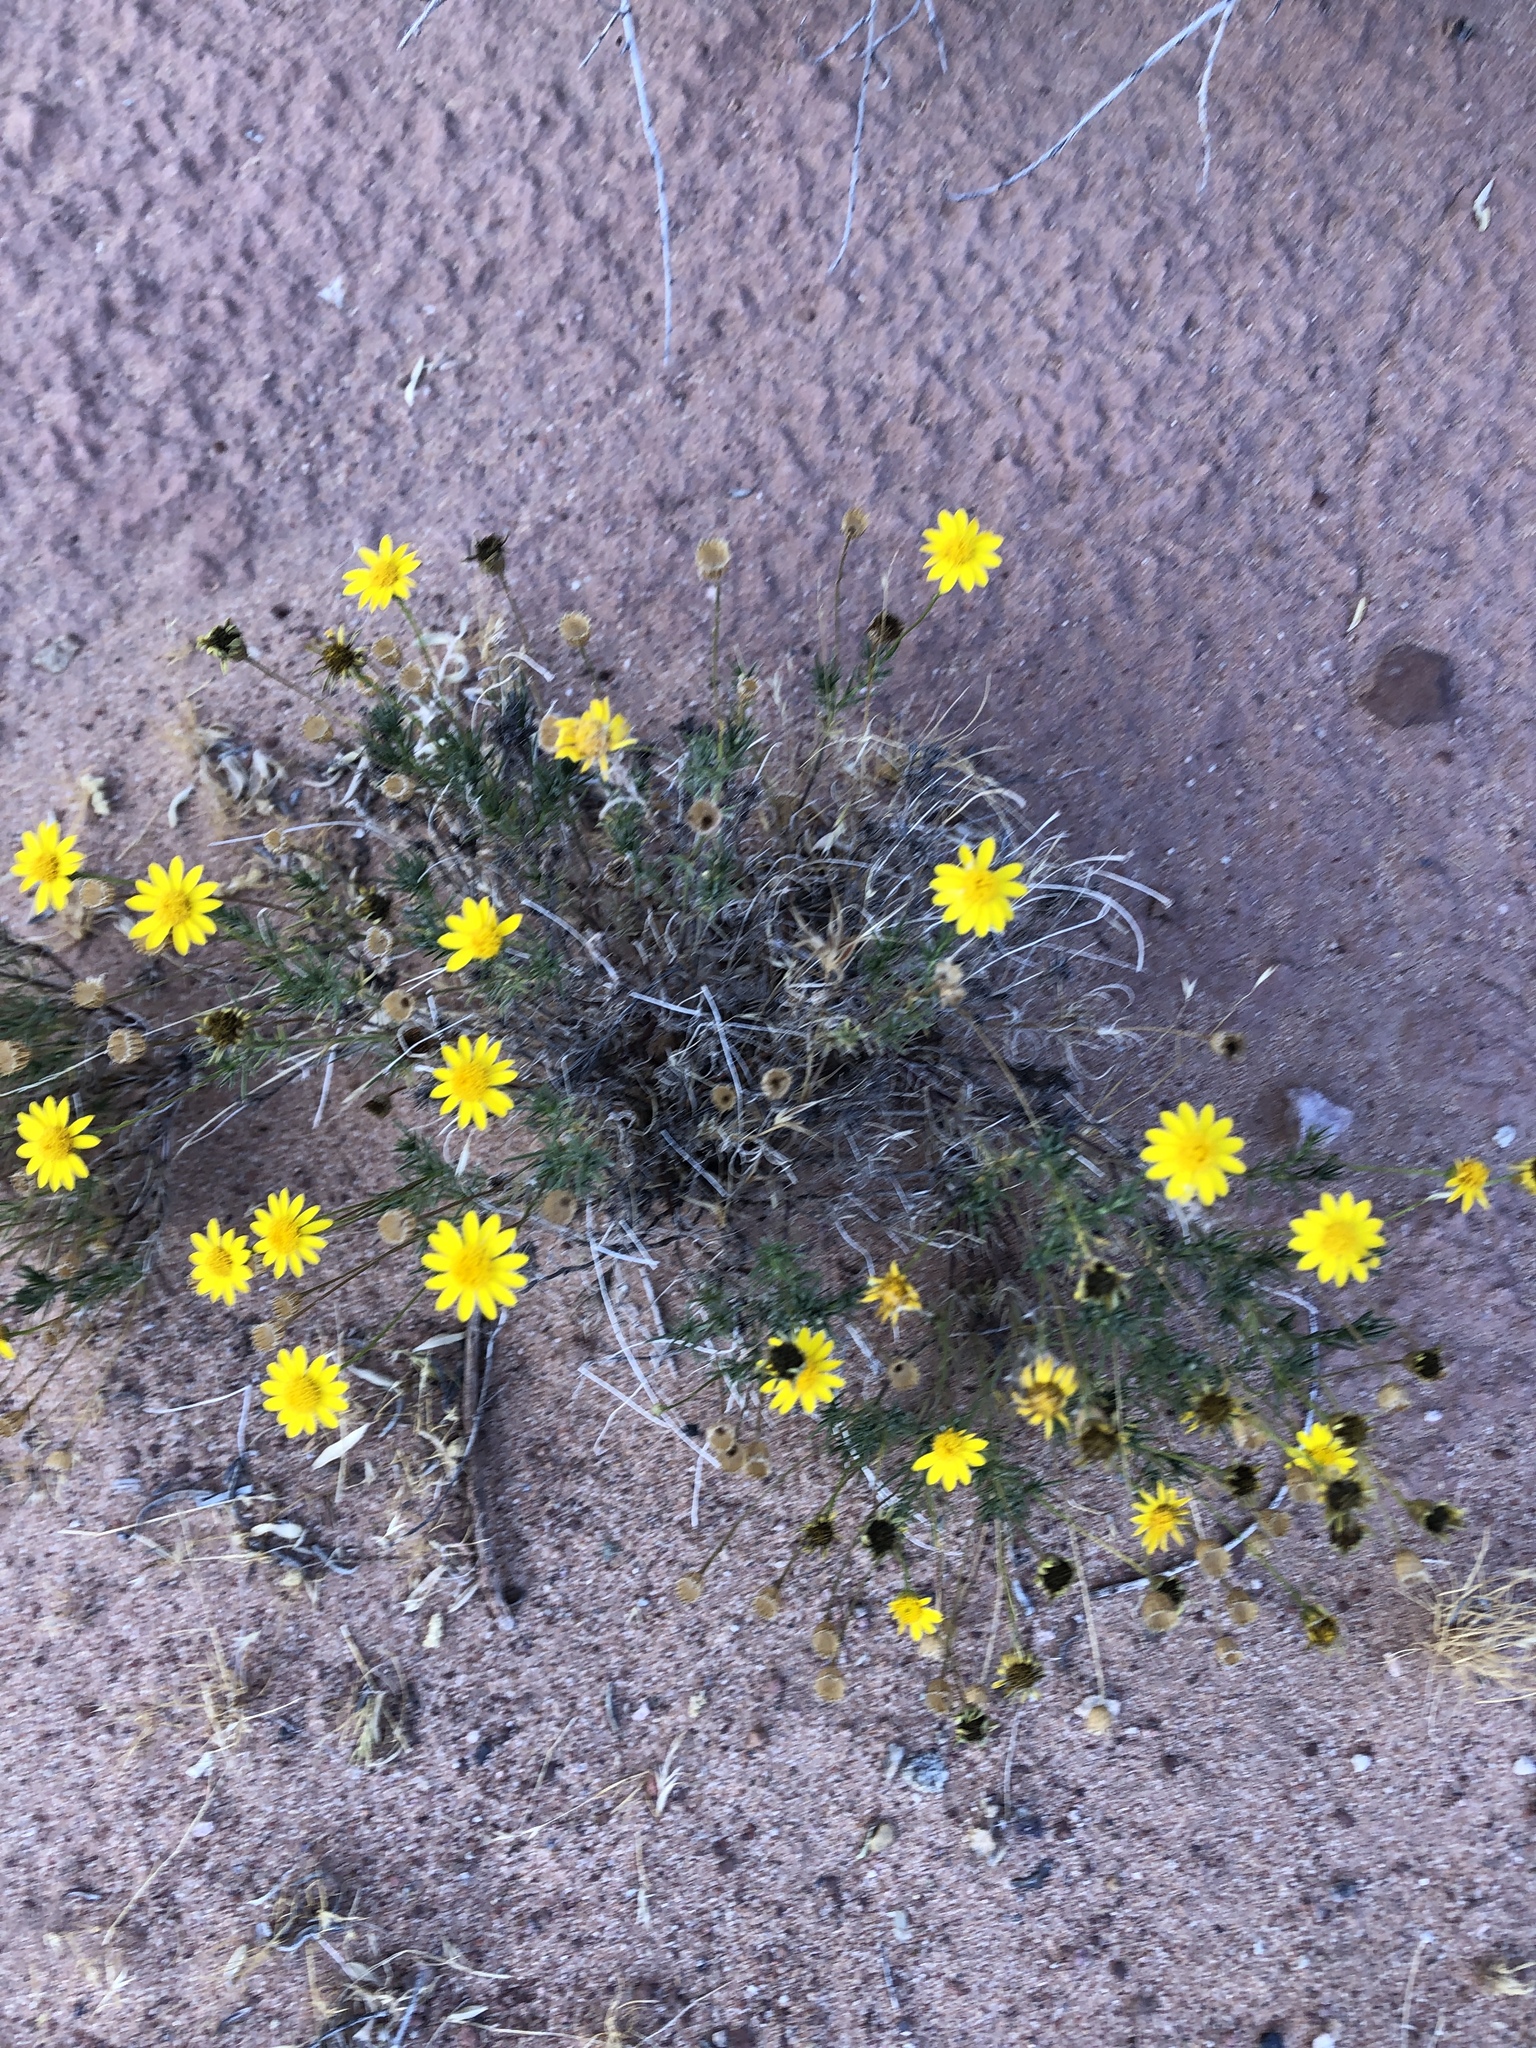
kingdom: Plantae
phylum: Tracheophyta
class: Magnoliopsida
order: Asterales
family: Asteraceae
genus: Thymophylla
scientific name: Thymophylla pentachaeta
